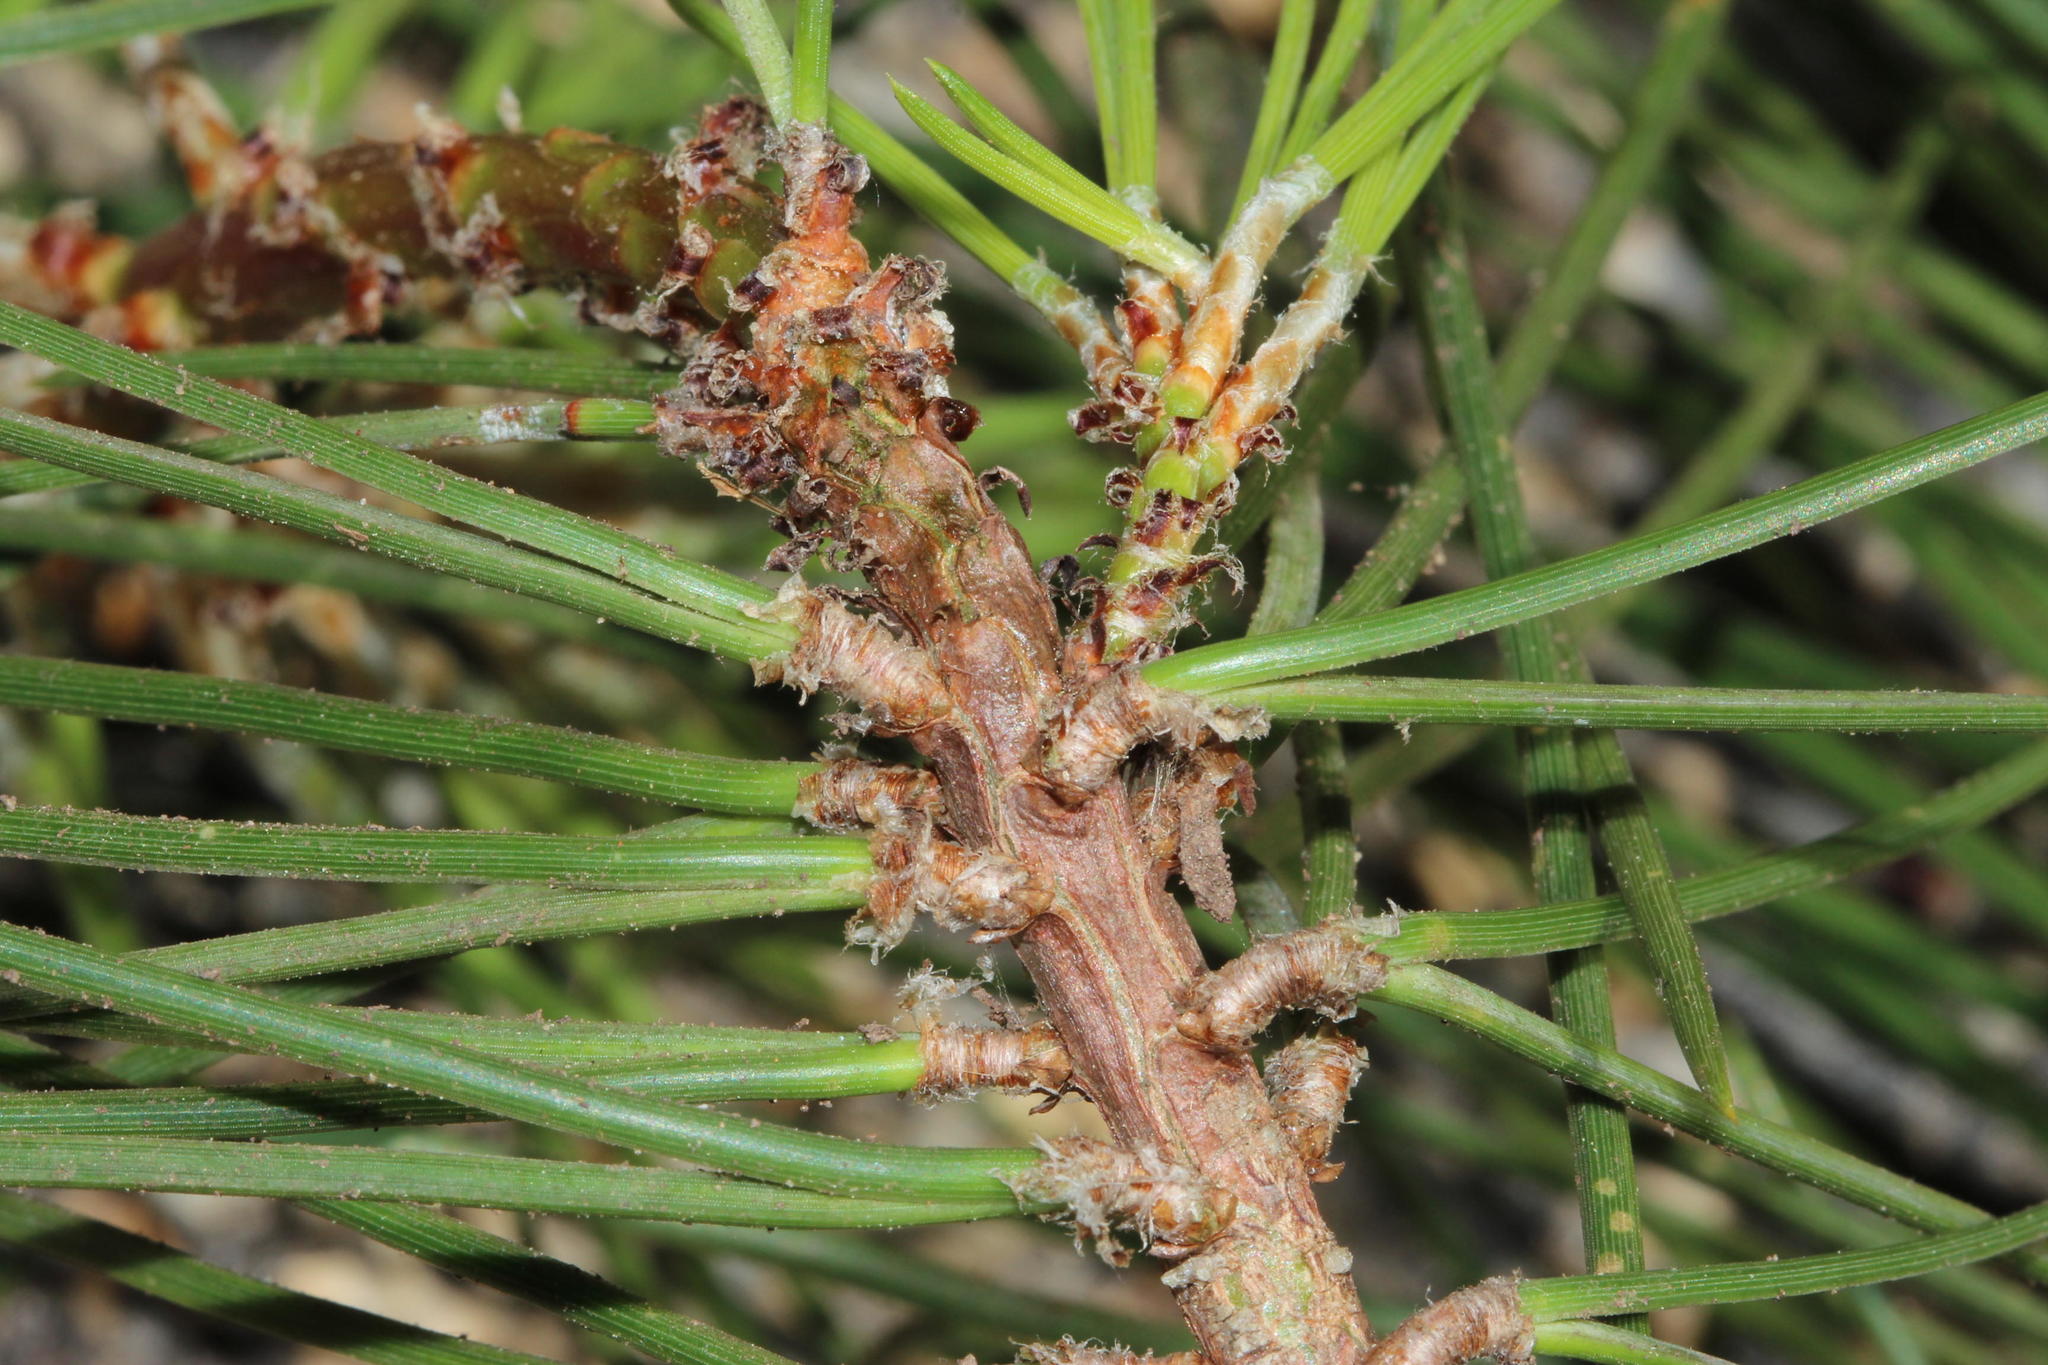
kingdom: Plantae
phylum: Tracheophyta
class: Pinopsida
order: Pinales
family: Pinaceae
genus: Pinus
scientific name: Pinus pinea
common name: Italian stone pine
